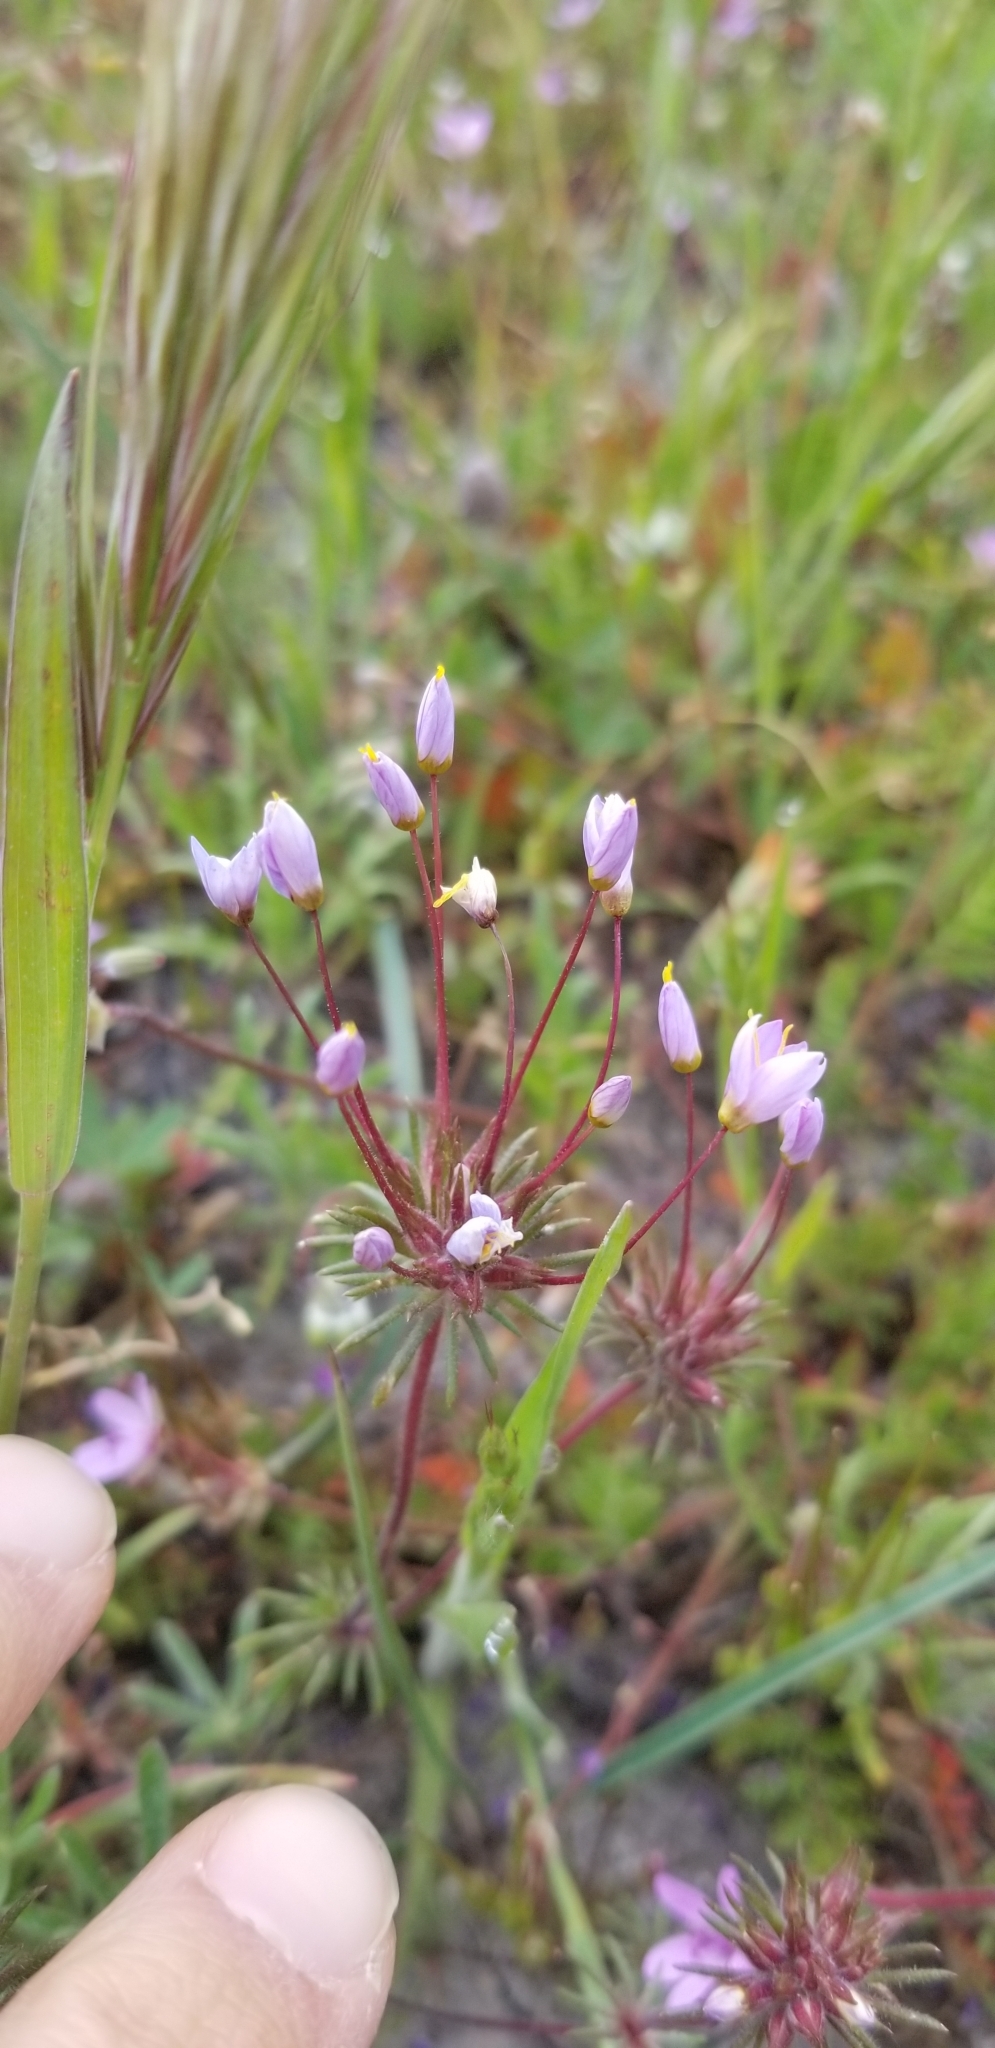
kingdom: Plantae
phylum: Tracheophyta
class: Magnoliopsida
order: Ericales
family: Polemoniaceae
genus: Leptosiphon
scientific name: Leptosiphon parviflorus
